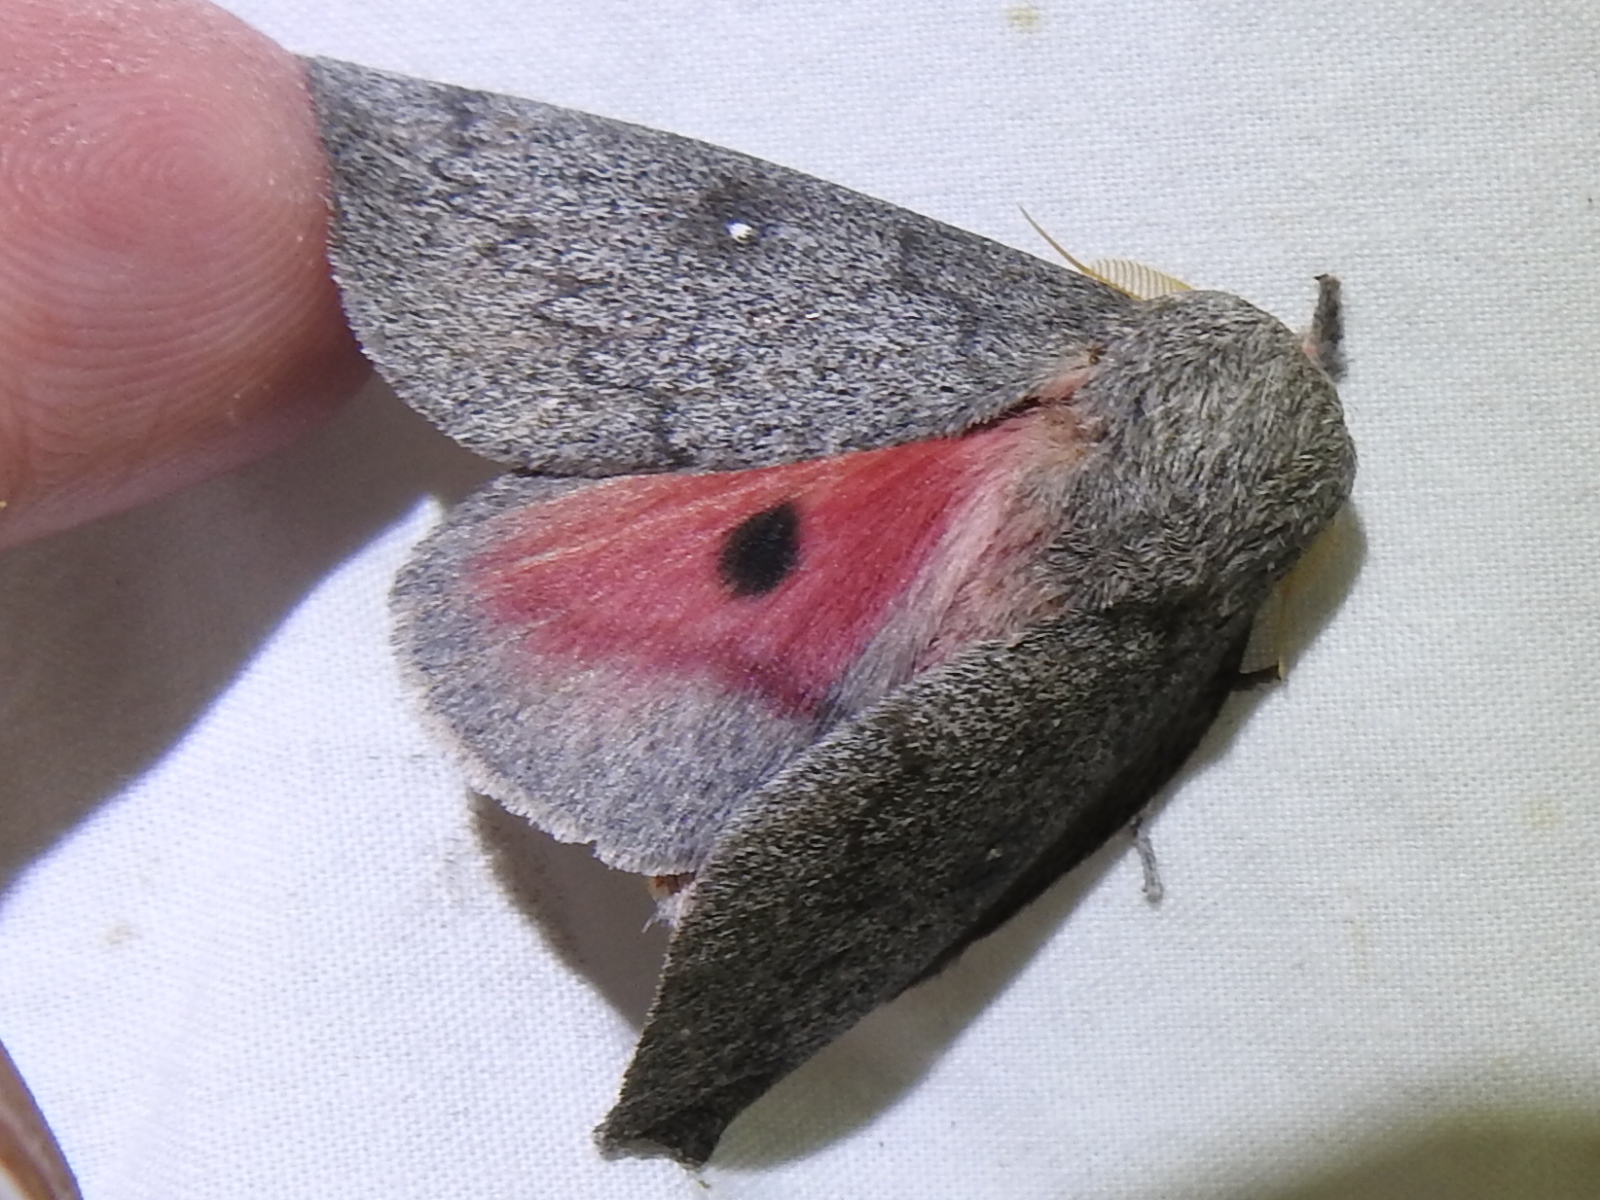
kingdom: Animalia
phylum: Arthropoda
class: Insecta
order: Lepidoptera
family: Saturniidae
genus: Syssphinx
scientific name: Syssphinx hubbardi
